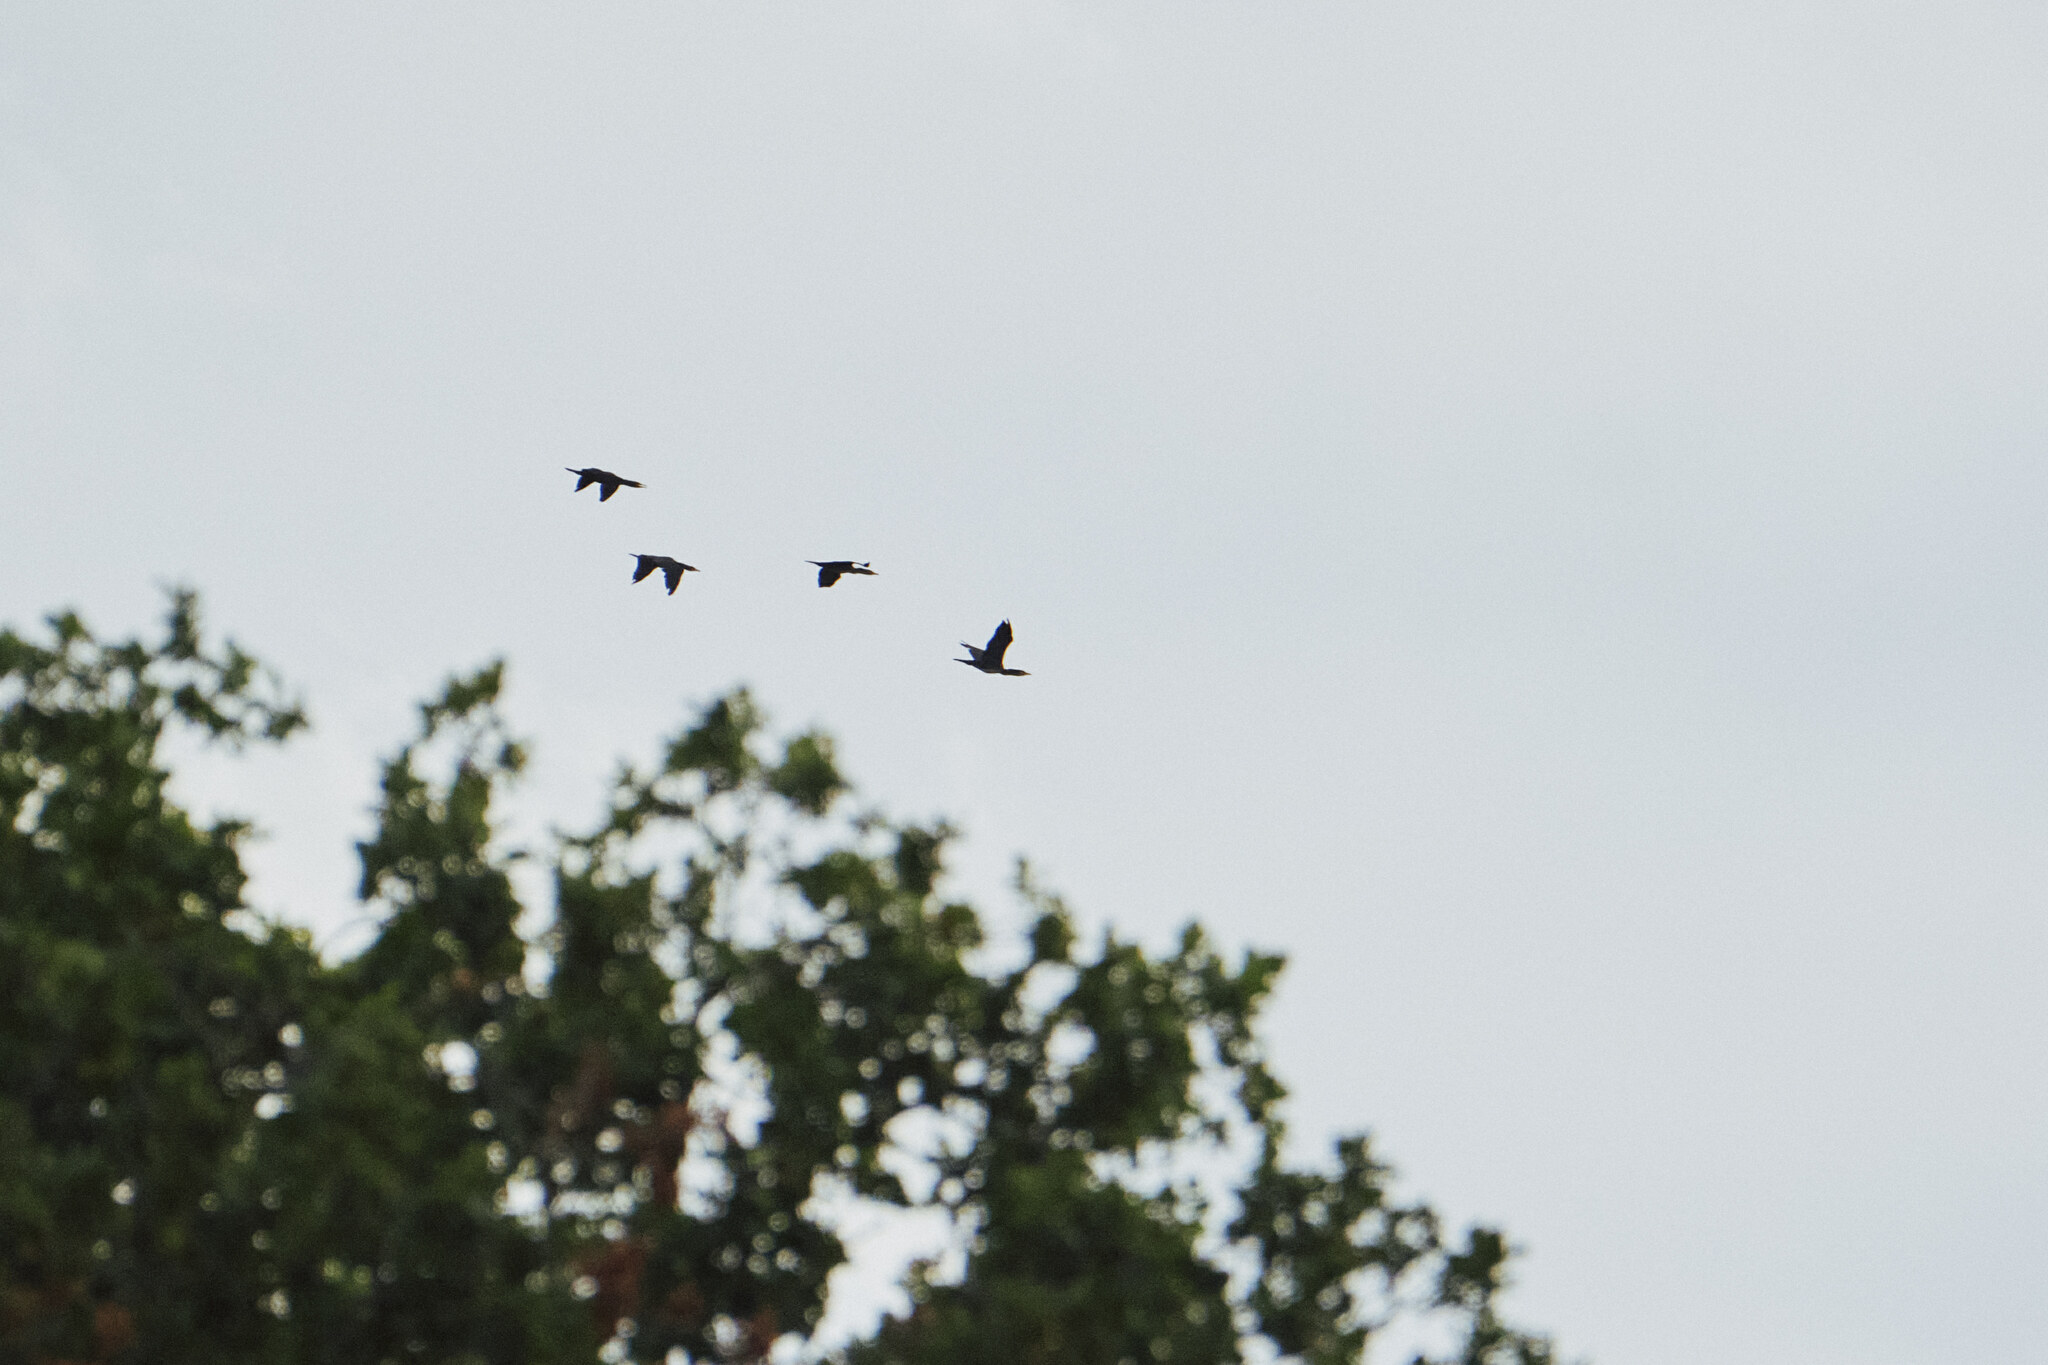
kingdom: Animalia
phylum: Chordata
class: Aves
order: Suliformes
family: Phalacrocoracidae
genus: Phalacrocorax
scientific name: Phalacrocorax carbo
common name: Great cormorant
